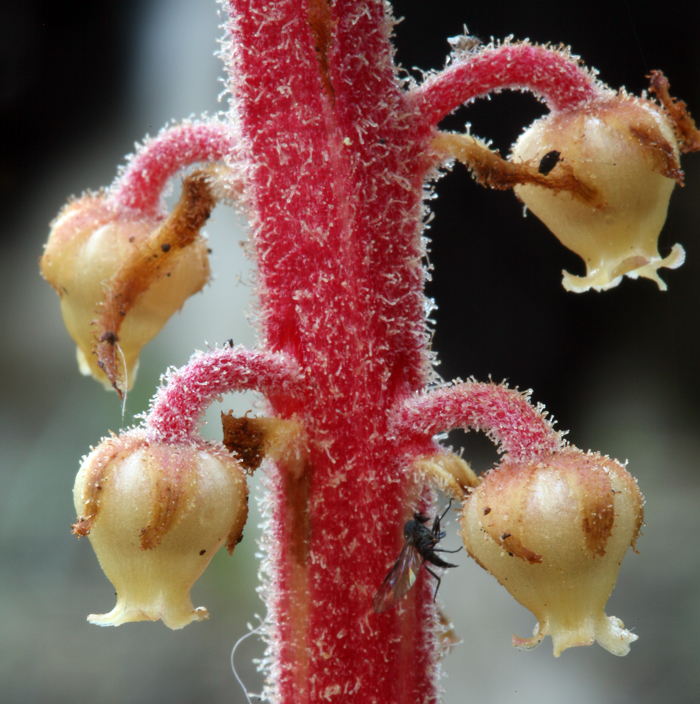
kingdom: Plantae
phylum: Tracheophyta
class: Magnoliopsida
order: Ericales
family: Ericaceae
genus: Pterospora
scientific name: Pterospora andromedea
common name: Giant bird's-nest
